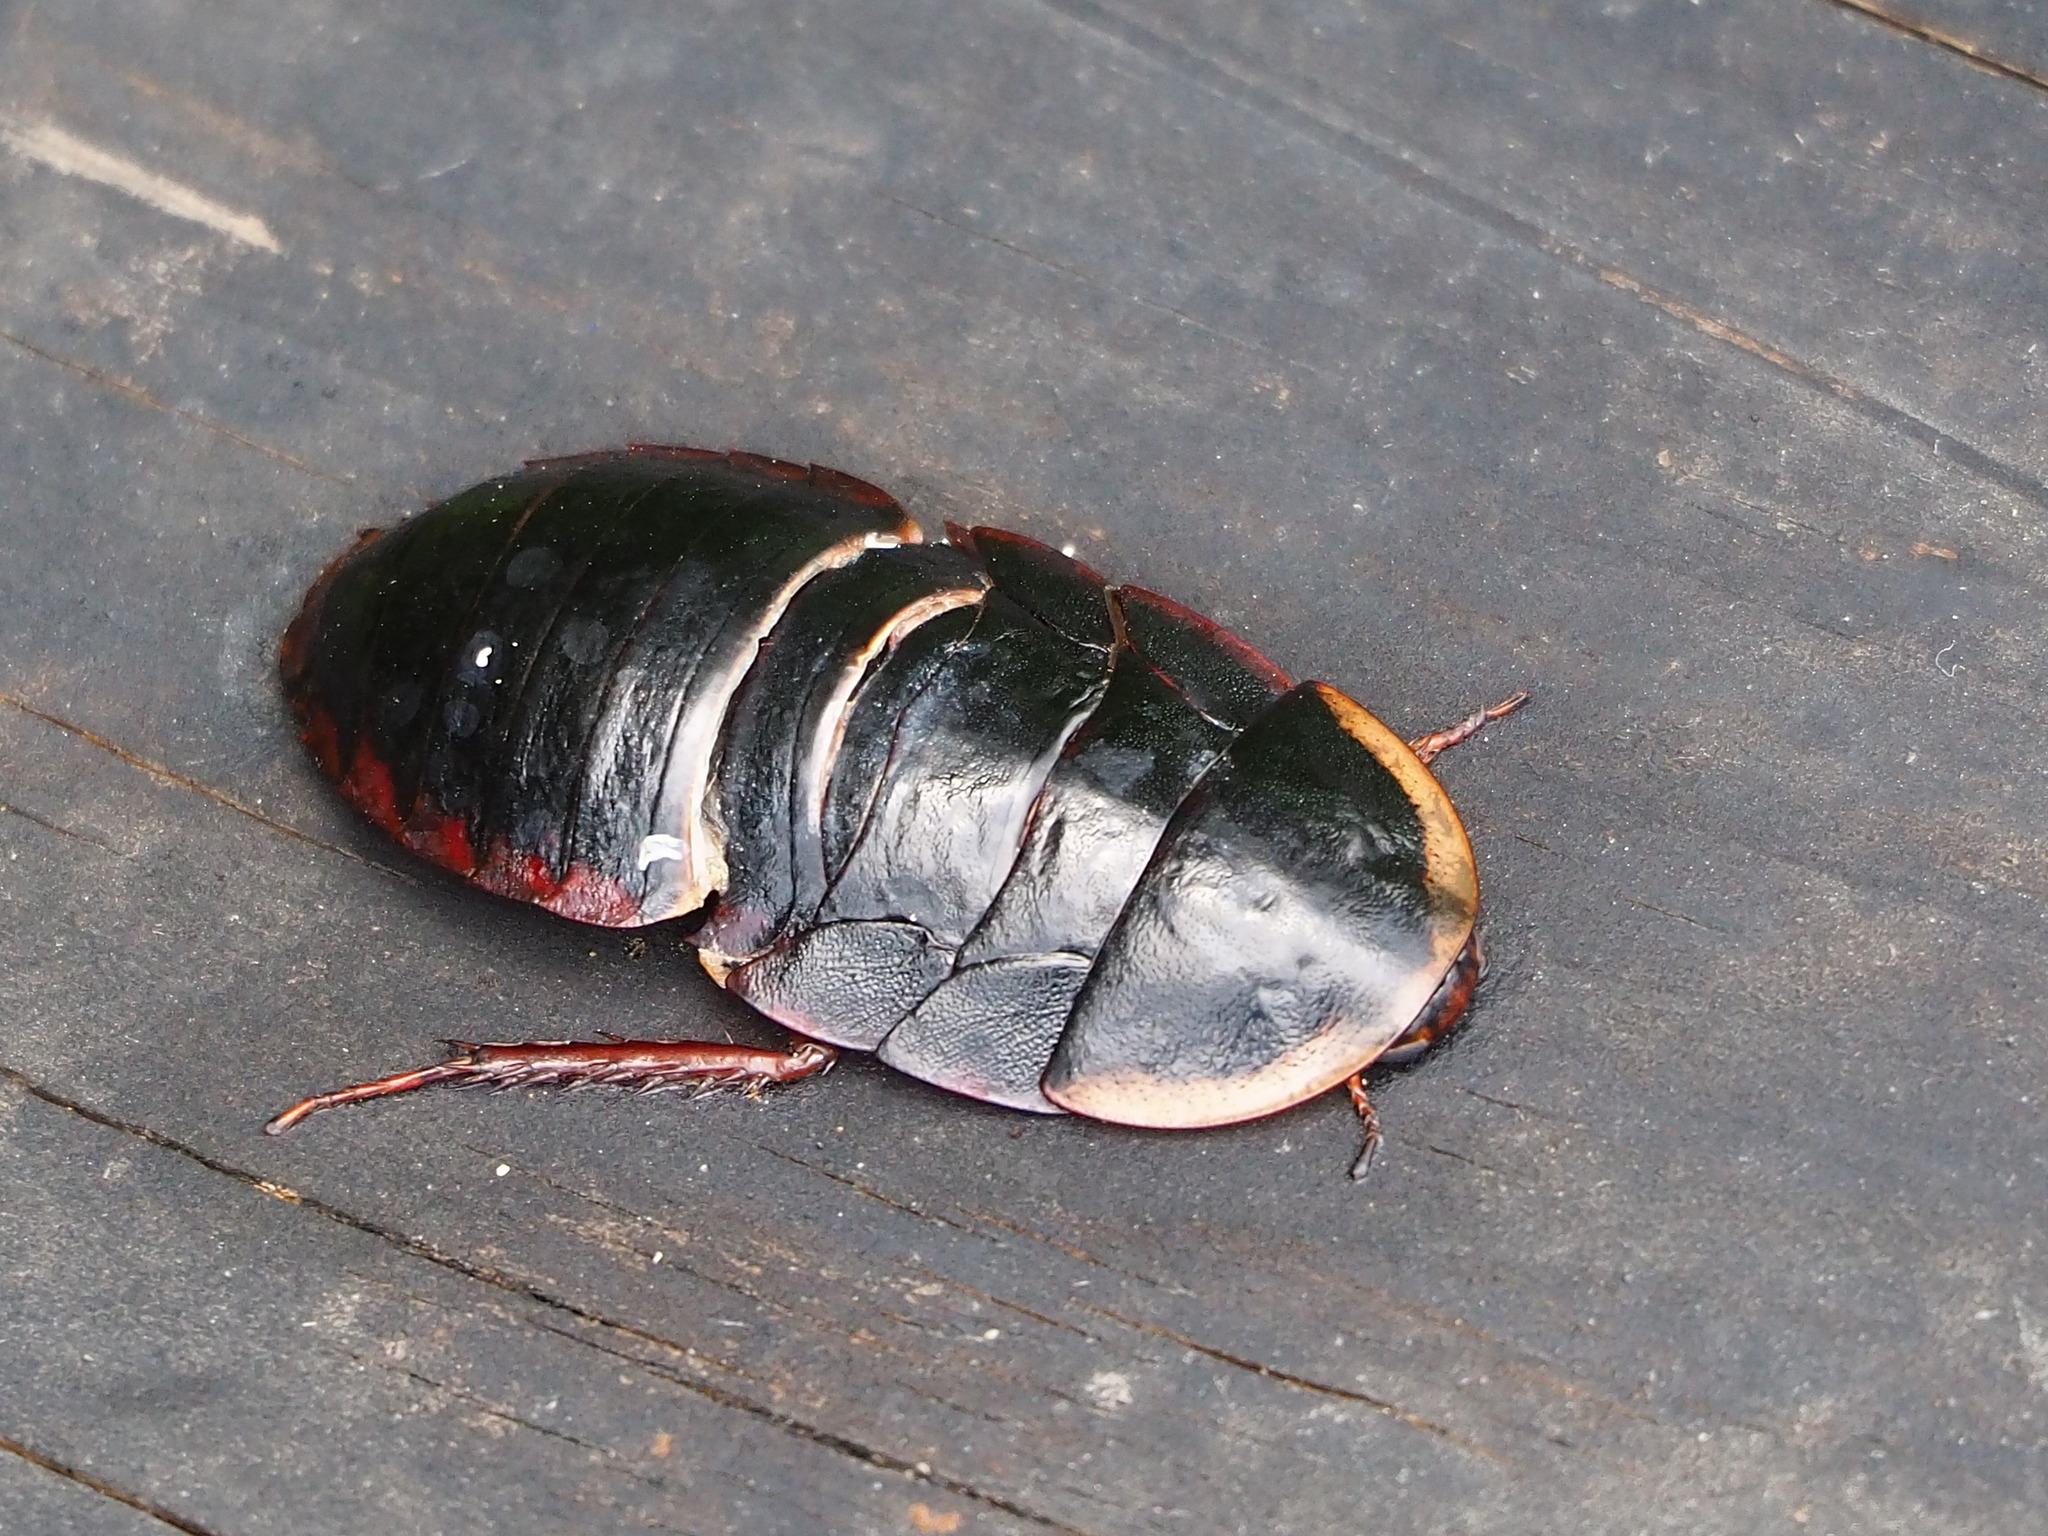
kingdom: Animalia
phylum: Arthropoda
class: Insecta
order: Blattodea
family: Blaberidae
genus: Opisthoplatia
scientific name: Opisthoplatia orientalis
